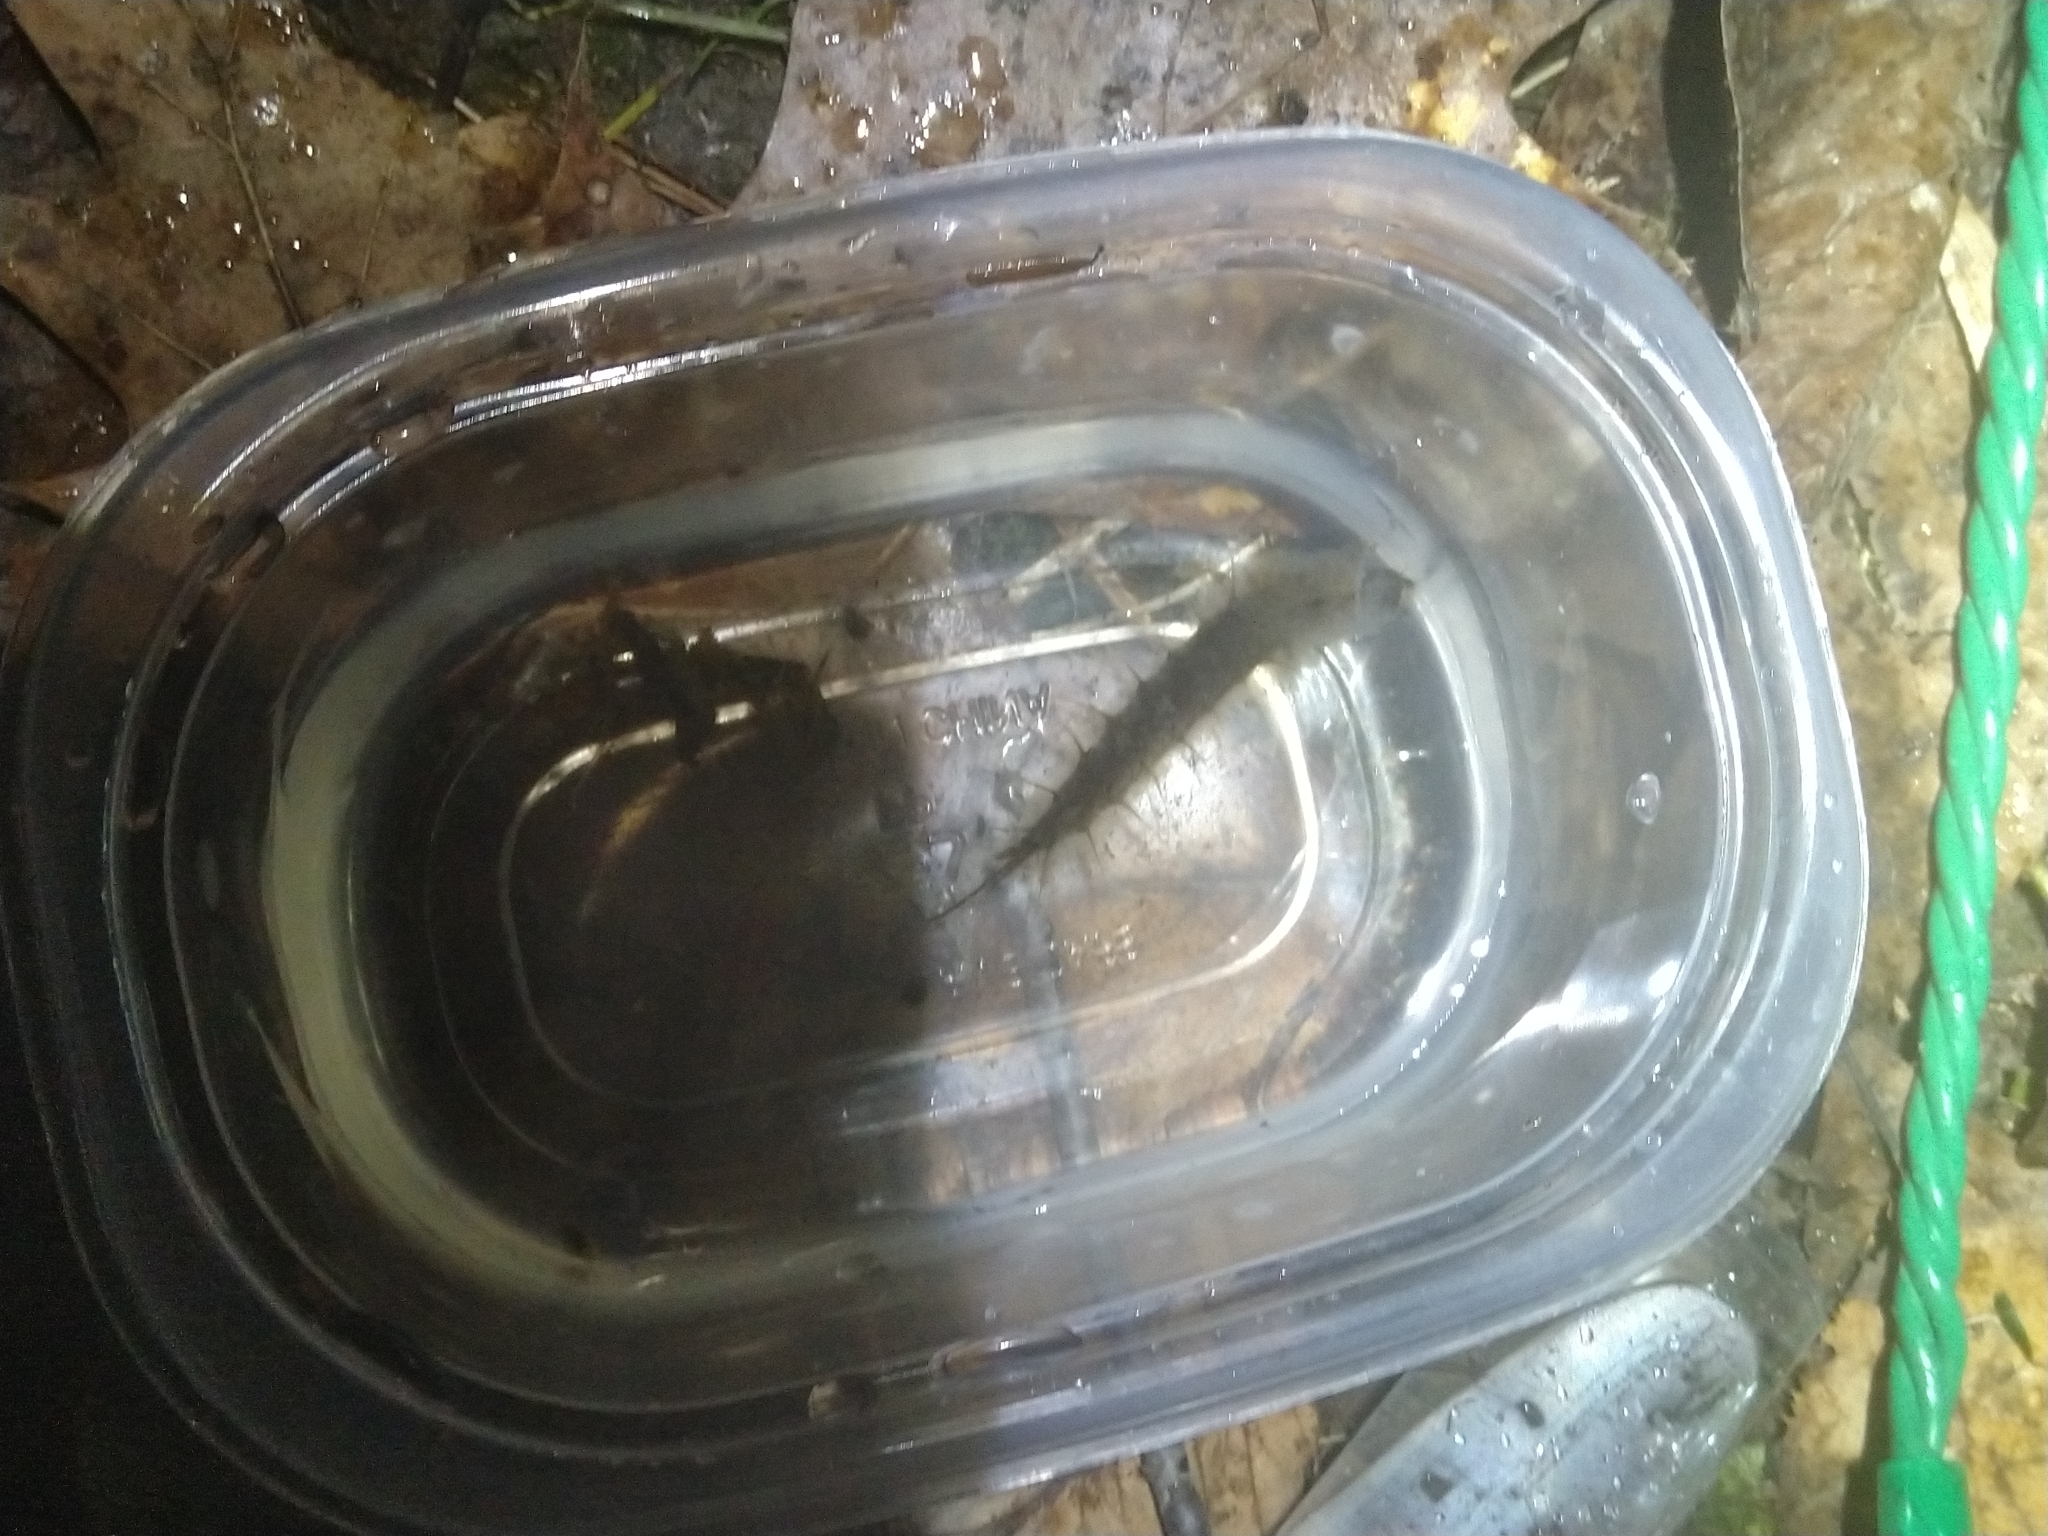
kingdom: Animalia
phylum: Arthropoda
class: Insecta
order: Megaloptera
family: Corydalidae
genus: Chauliodes
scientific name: Chauliodes
